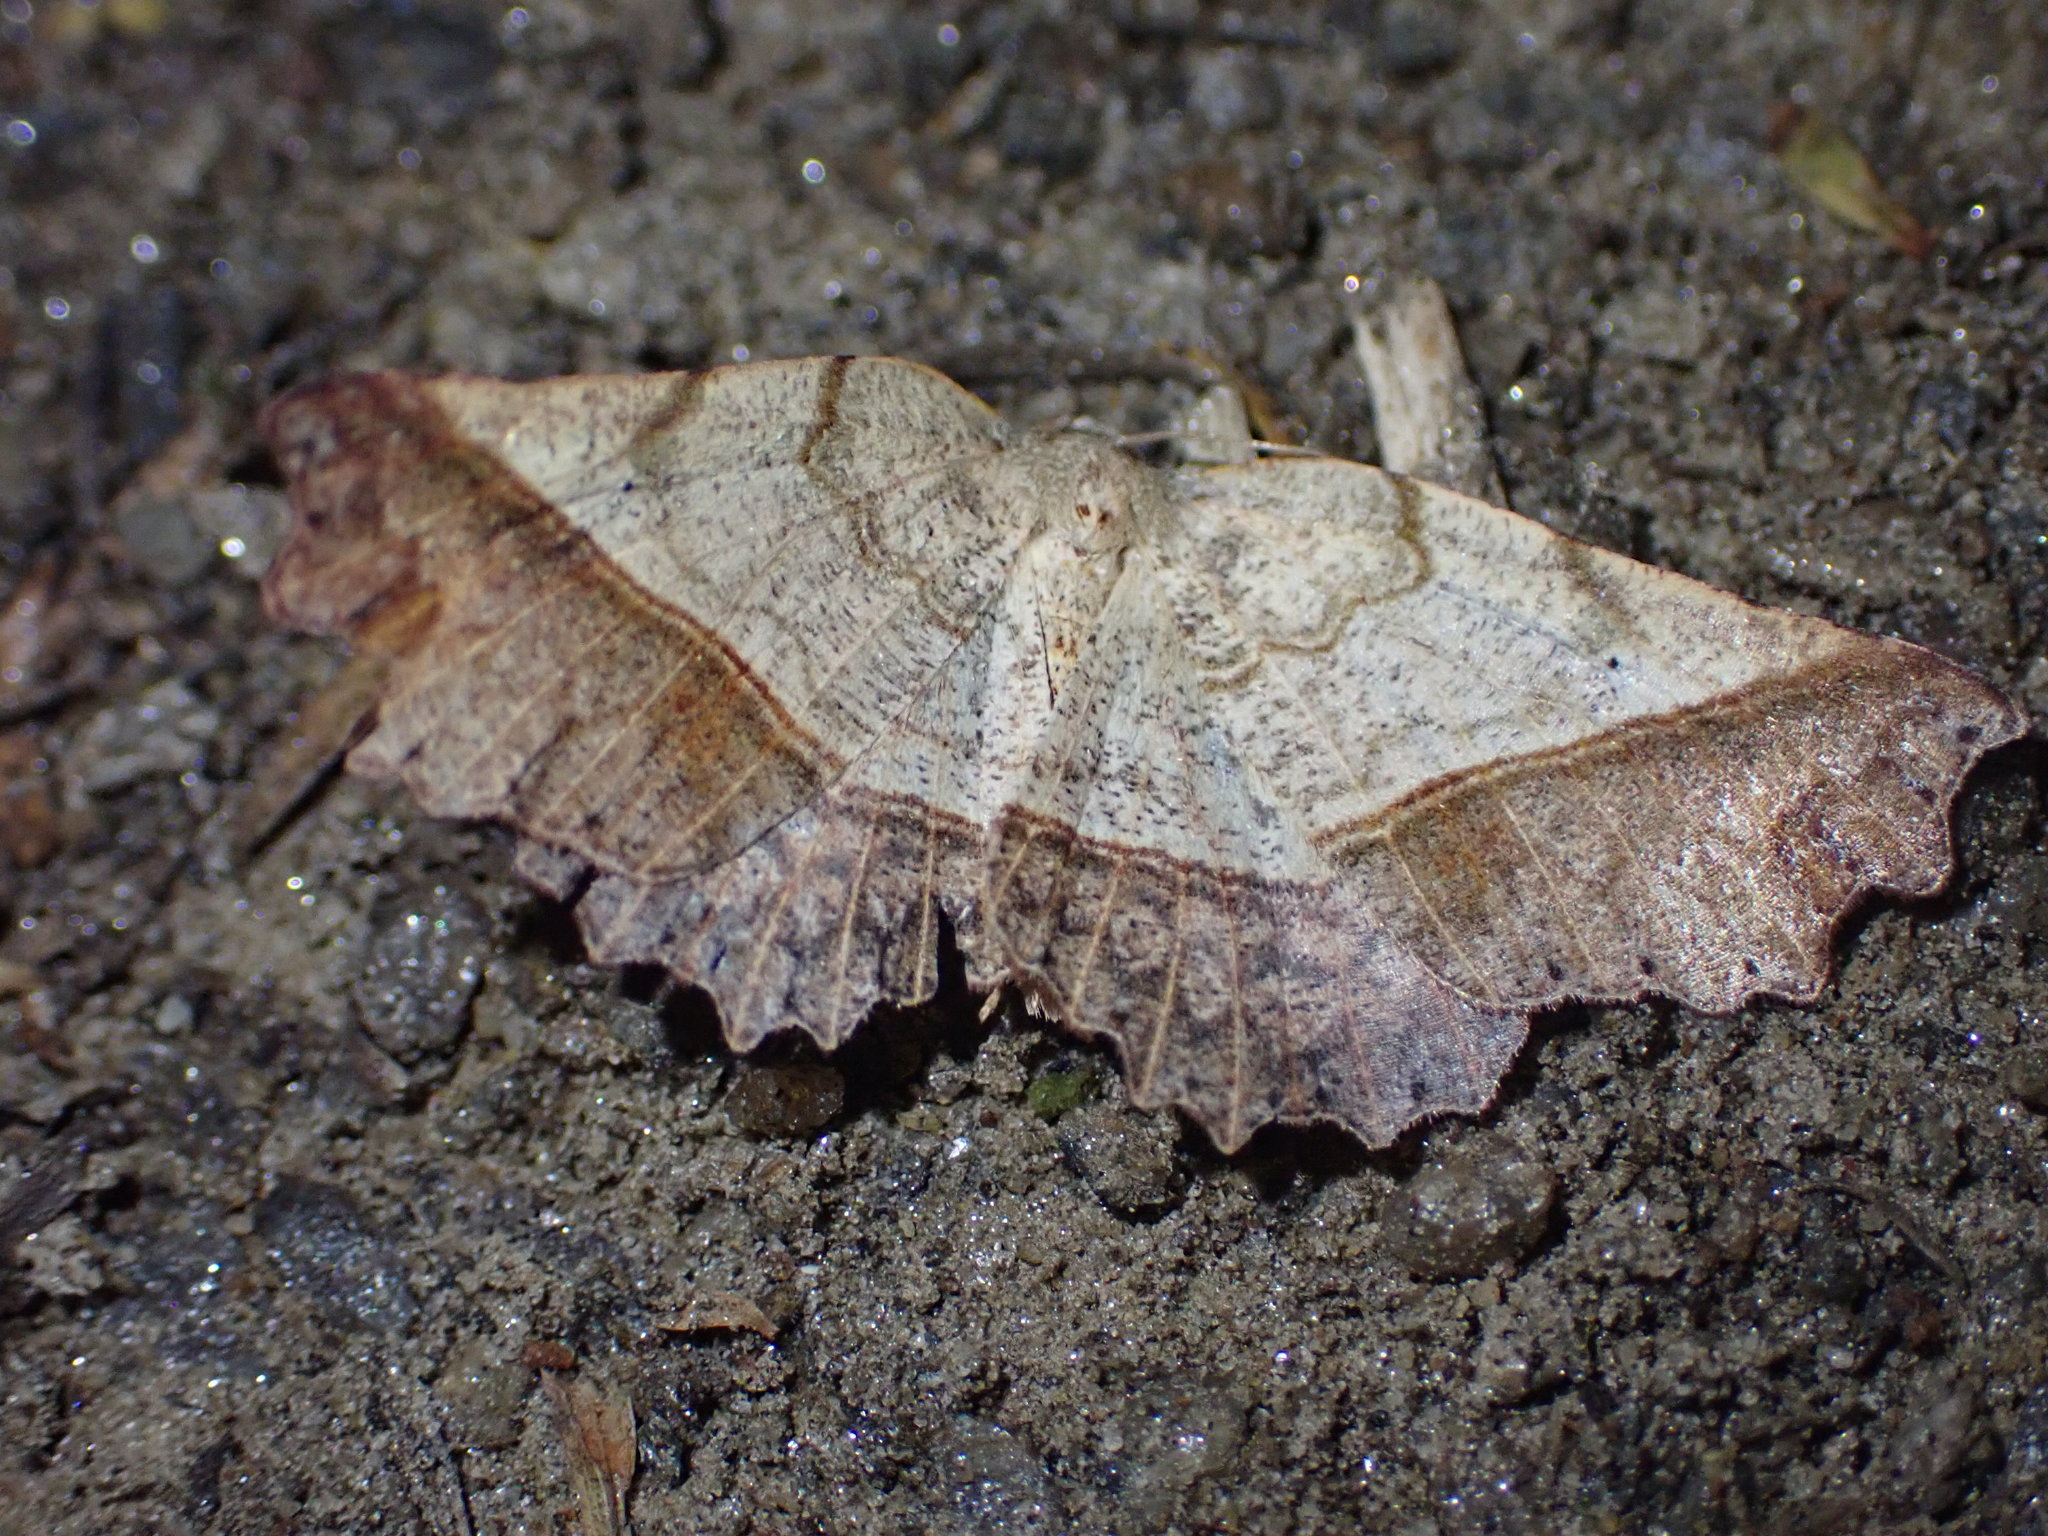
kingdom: Animalia
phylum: Arthropoda
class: Insecta
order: Lepidoptera
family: Geometridae
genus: Ischalis
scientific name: Ischalis gallaria
